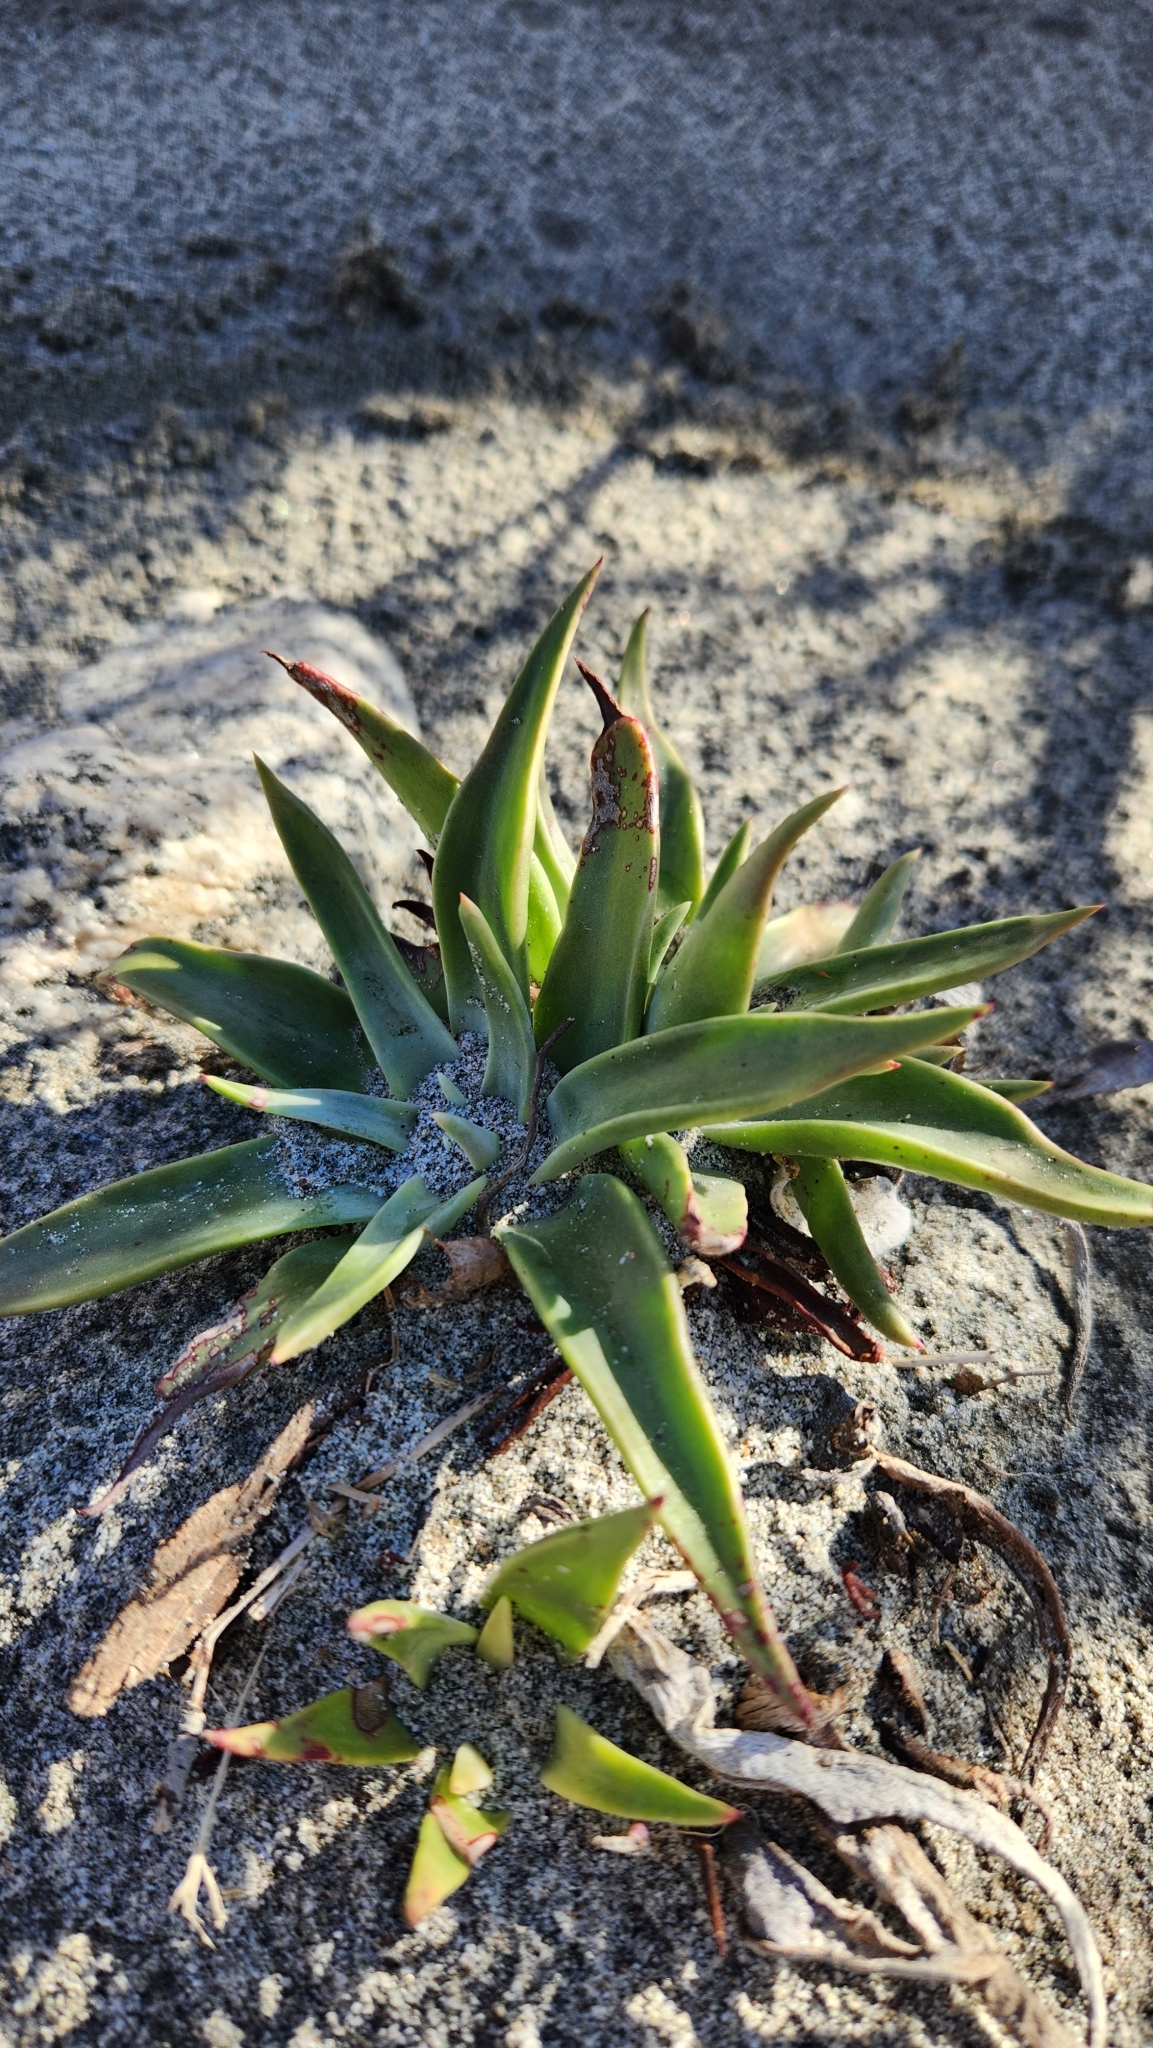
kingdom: Plantae
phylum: Tracheophyta
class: Magnoliopsida
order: Saxifragales
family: Crassulaceae
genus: Dudleya
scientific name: Dudleya saxosa
